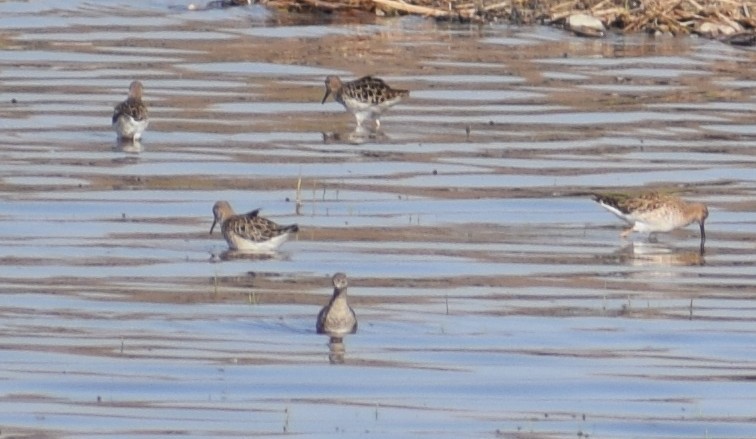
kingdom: Animalia
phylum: Chordata
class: Aves
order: Charadriiformes
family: Scolopacidae
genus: Calidris
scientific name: Calidris pugnax
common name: Ruff
